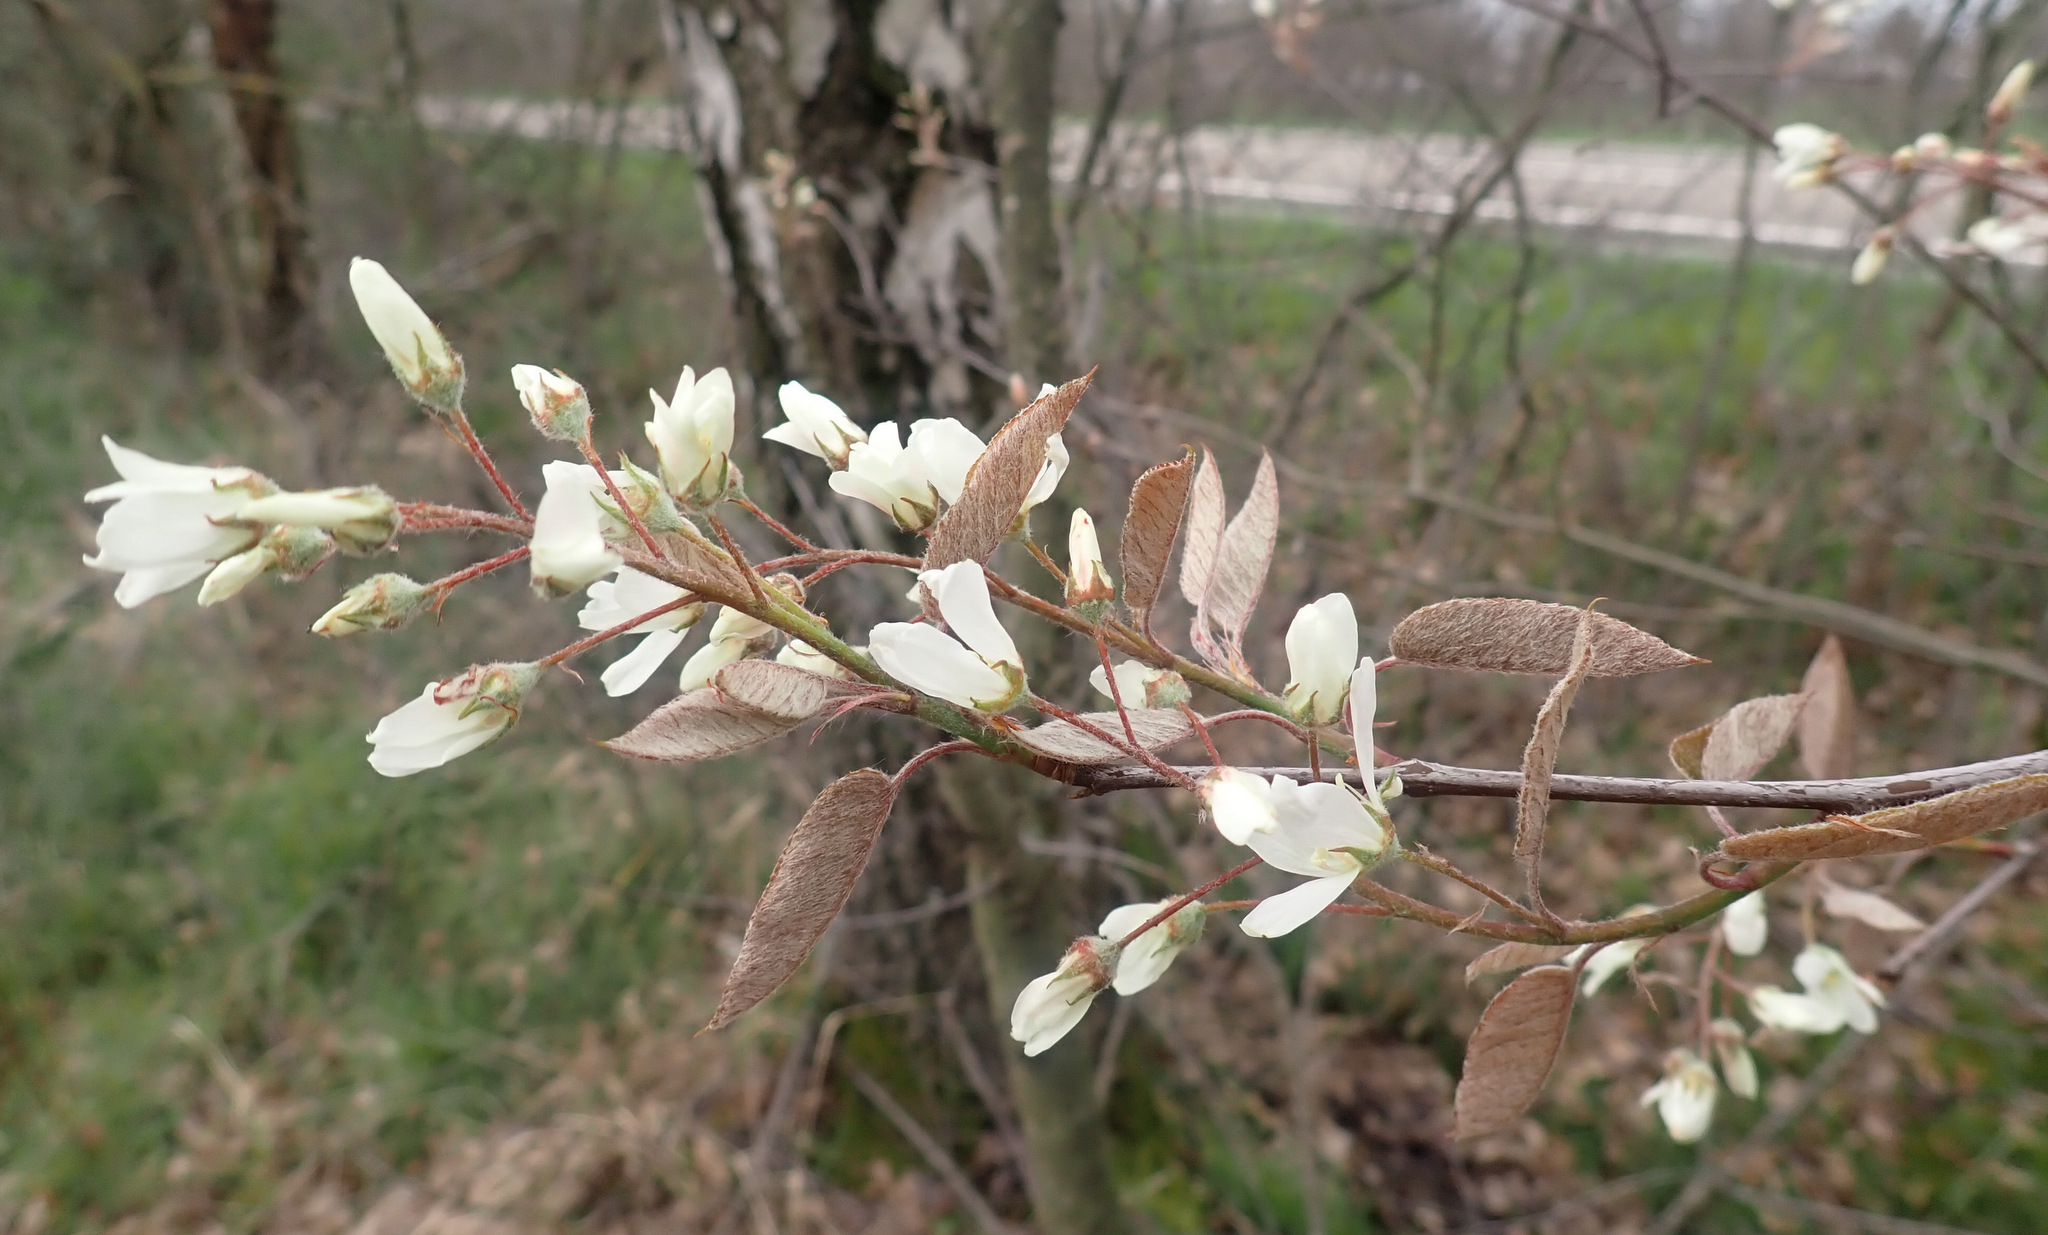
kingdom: Plantae
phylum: Tracheophyta
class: Magnoliopsida
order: Rosales
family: Rosaceae
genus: Amelanchier
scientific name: Amelanchier lamarckii
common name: Juneberry
